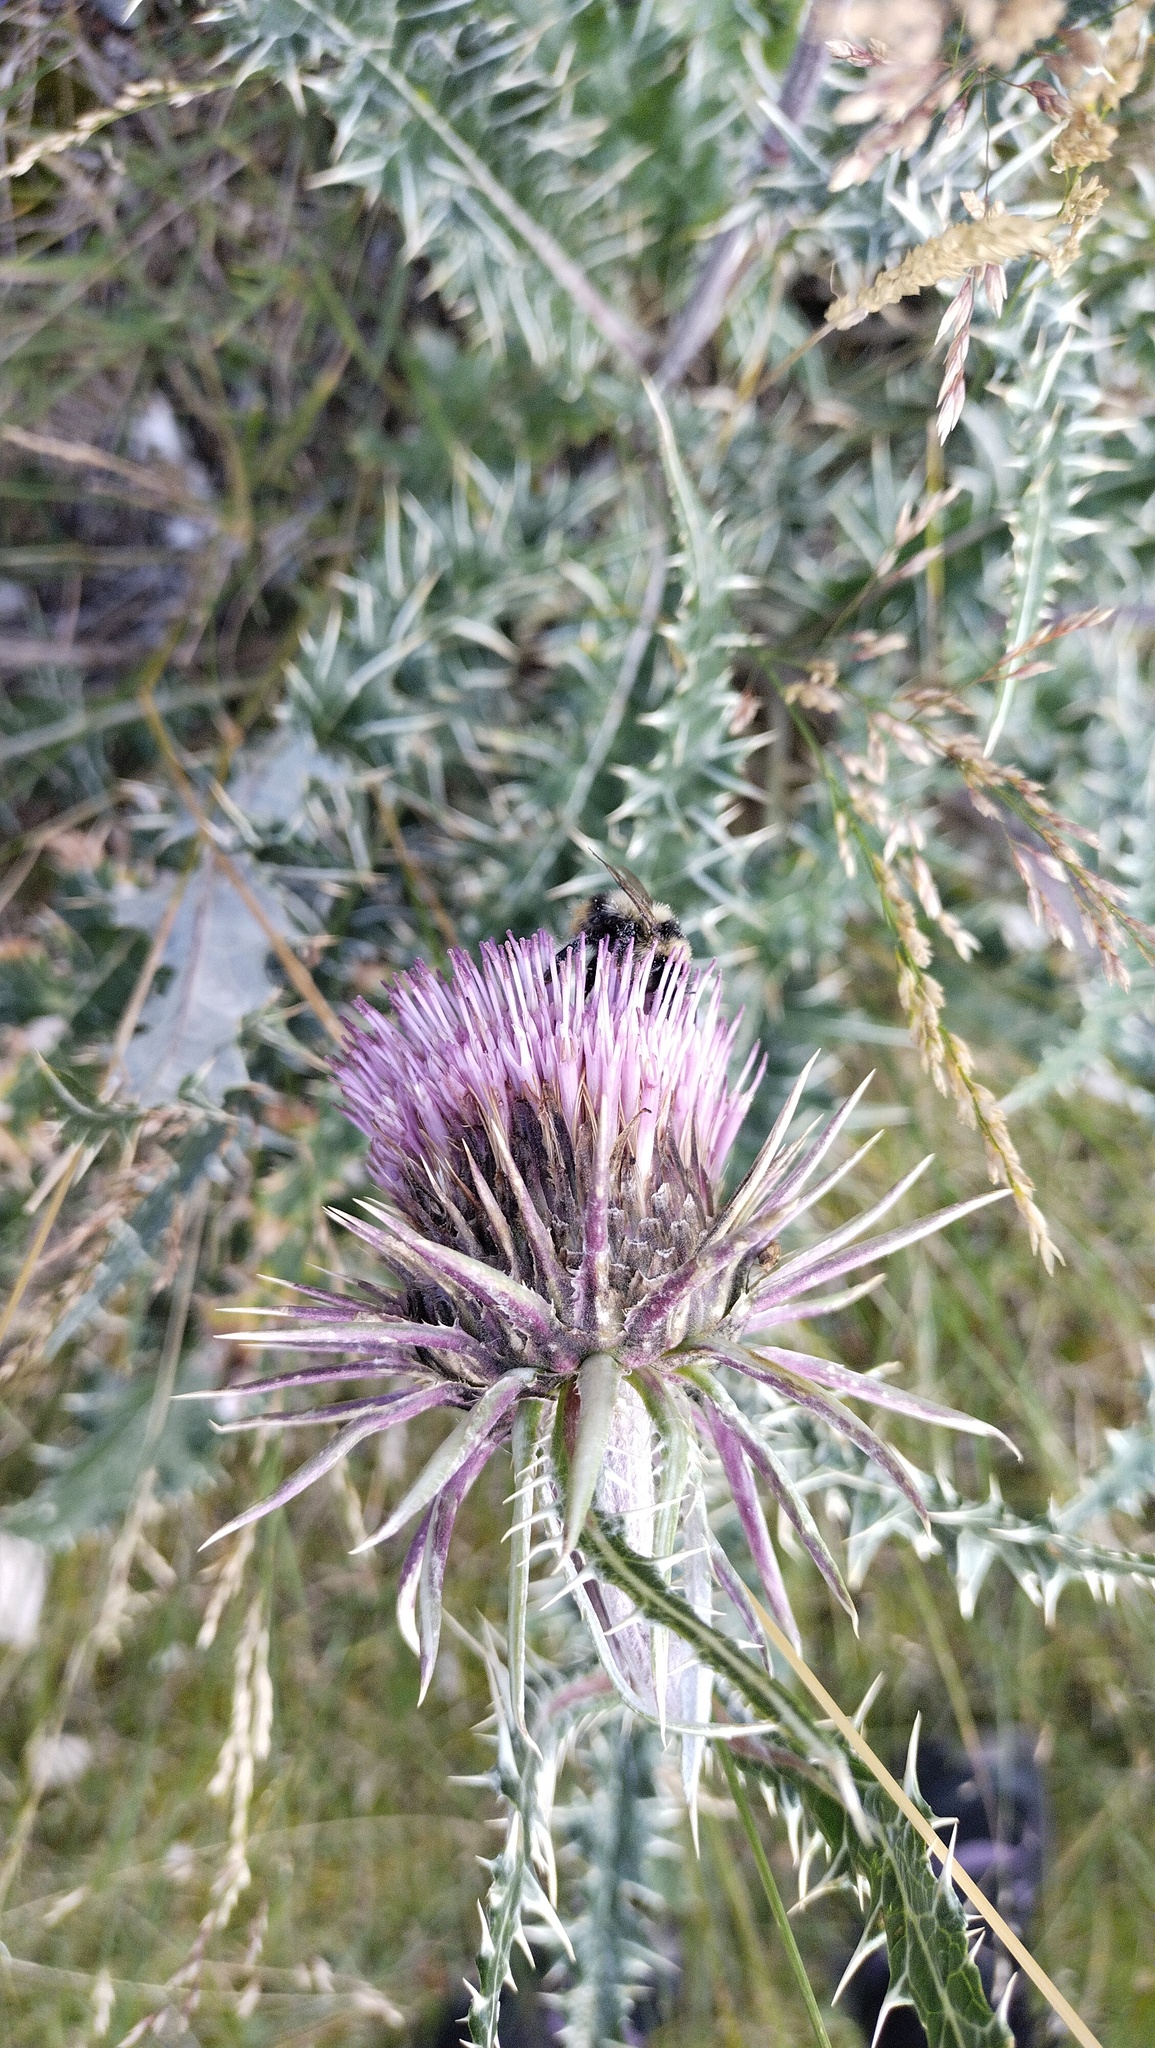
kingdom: Plantae
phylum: Tracheophyta
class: Magnoliopsida
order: Asterales
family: Asteraceae
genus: Alfredia
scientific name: Alfredia nivea
